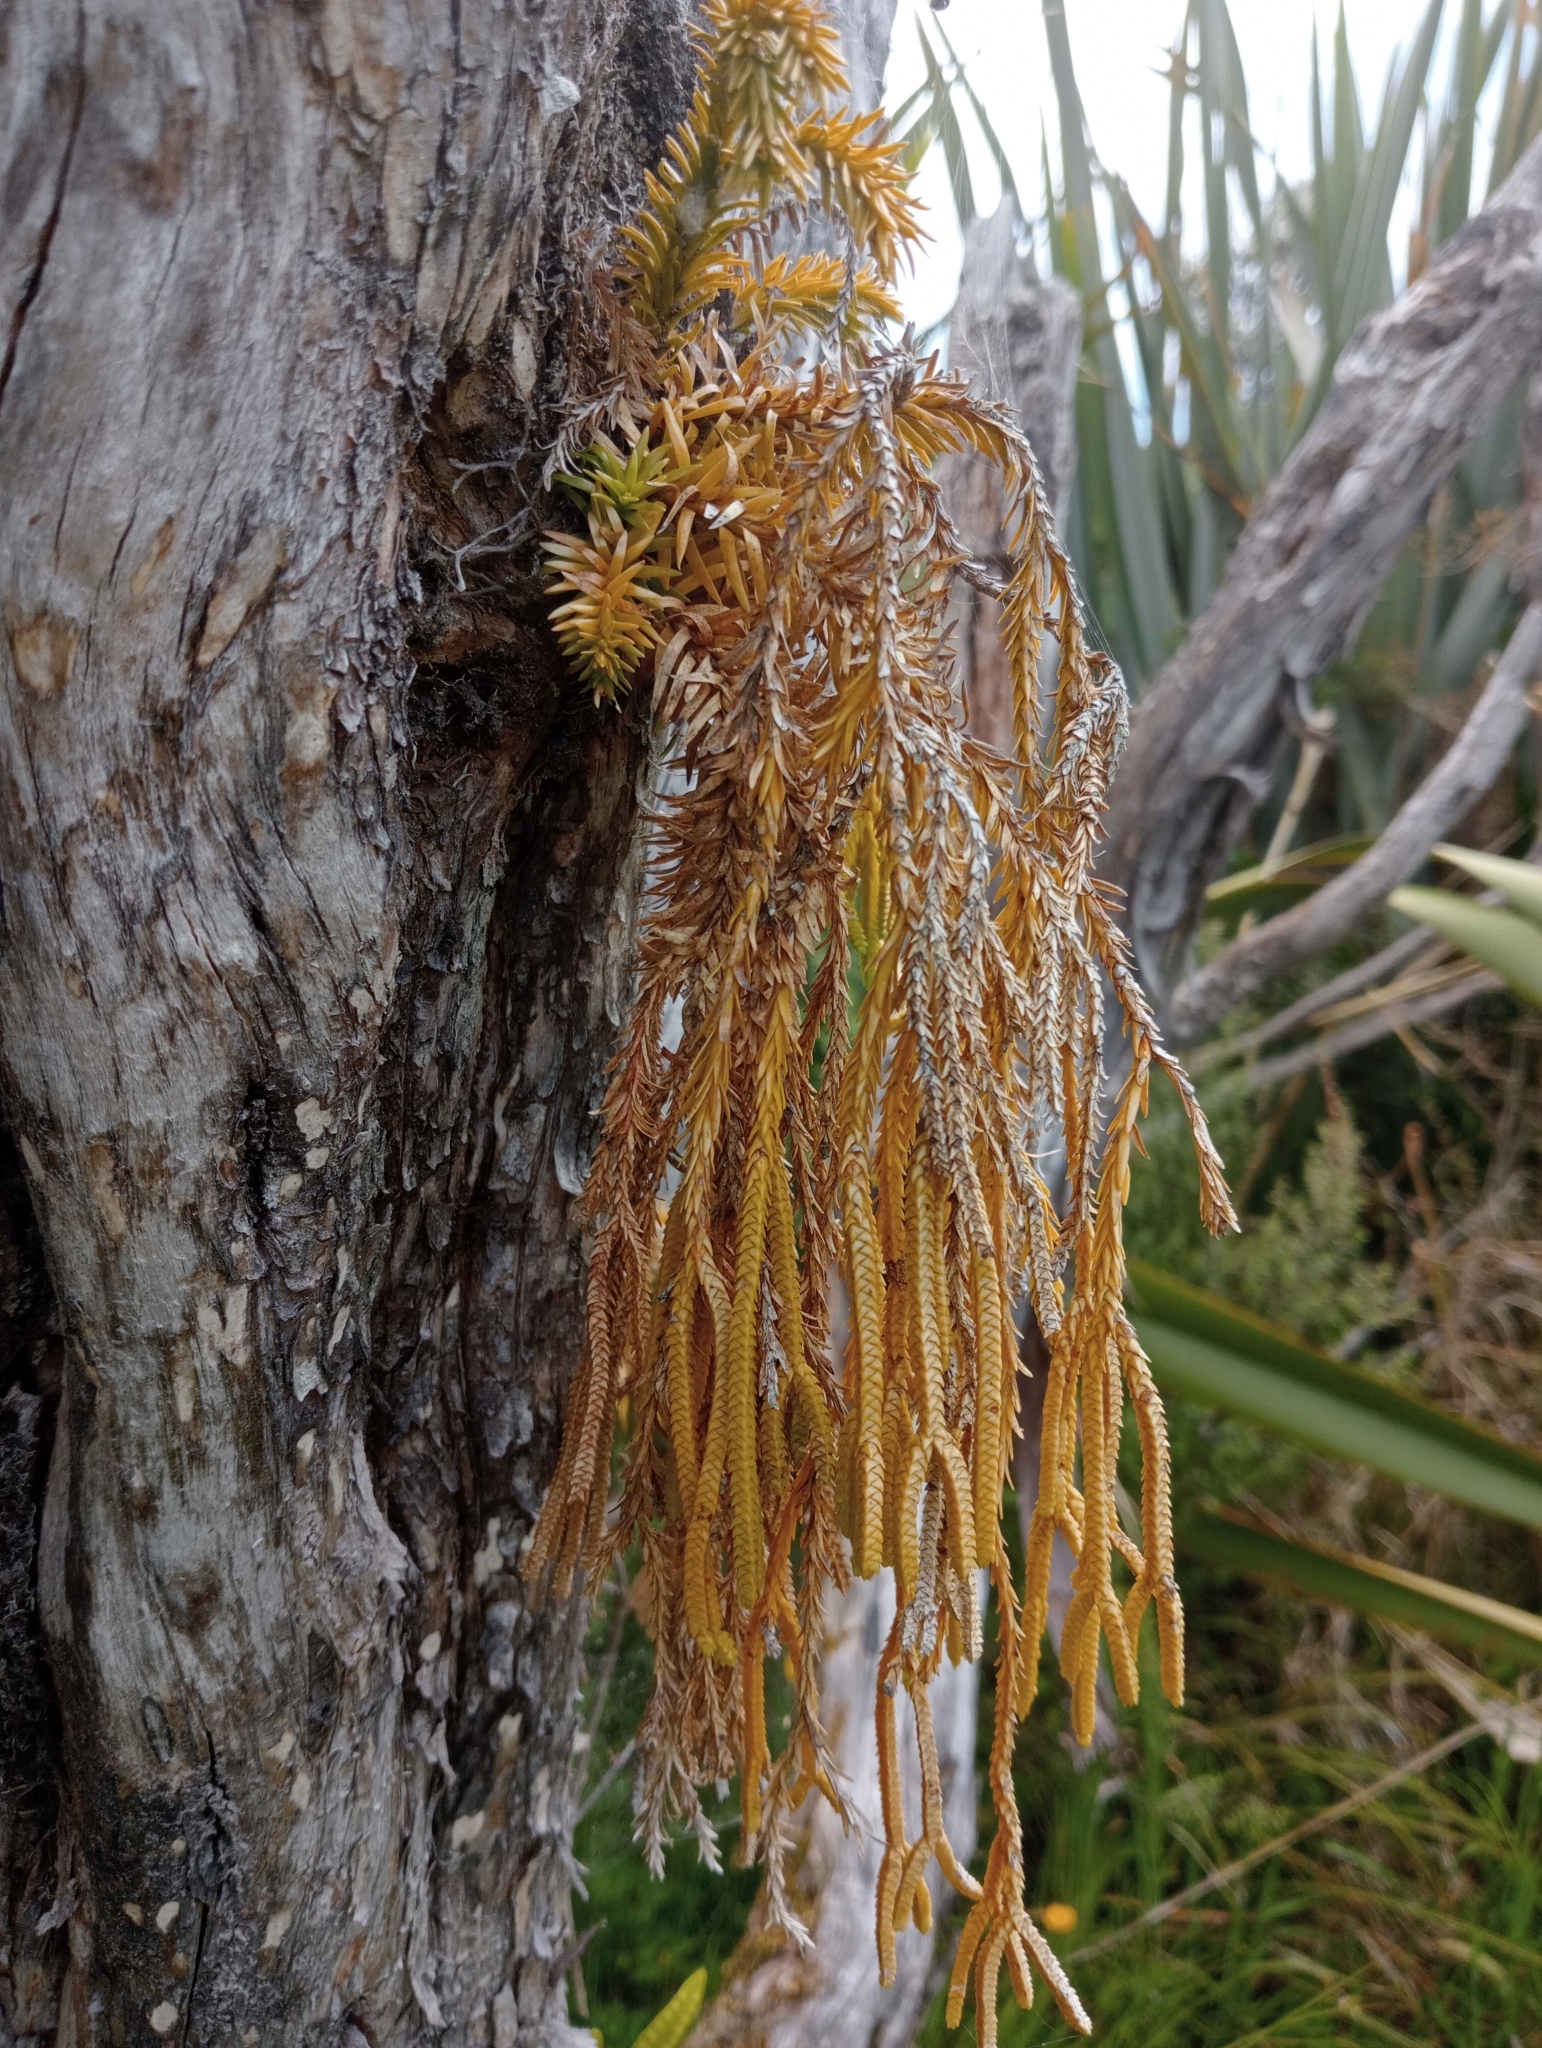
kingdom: Plantae
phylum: Tracheophyta
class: Lycopodiopsida
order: Lycopodiales
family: Lycopodiaceae
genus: Phlegmariurus
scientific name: Phlegmariurus varius
